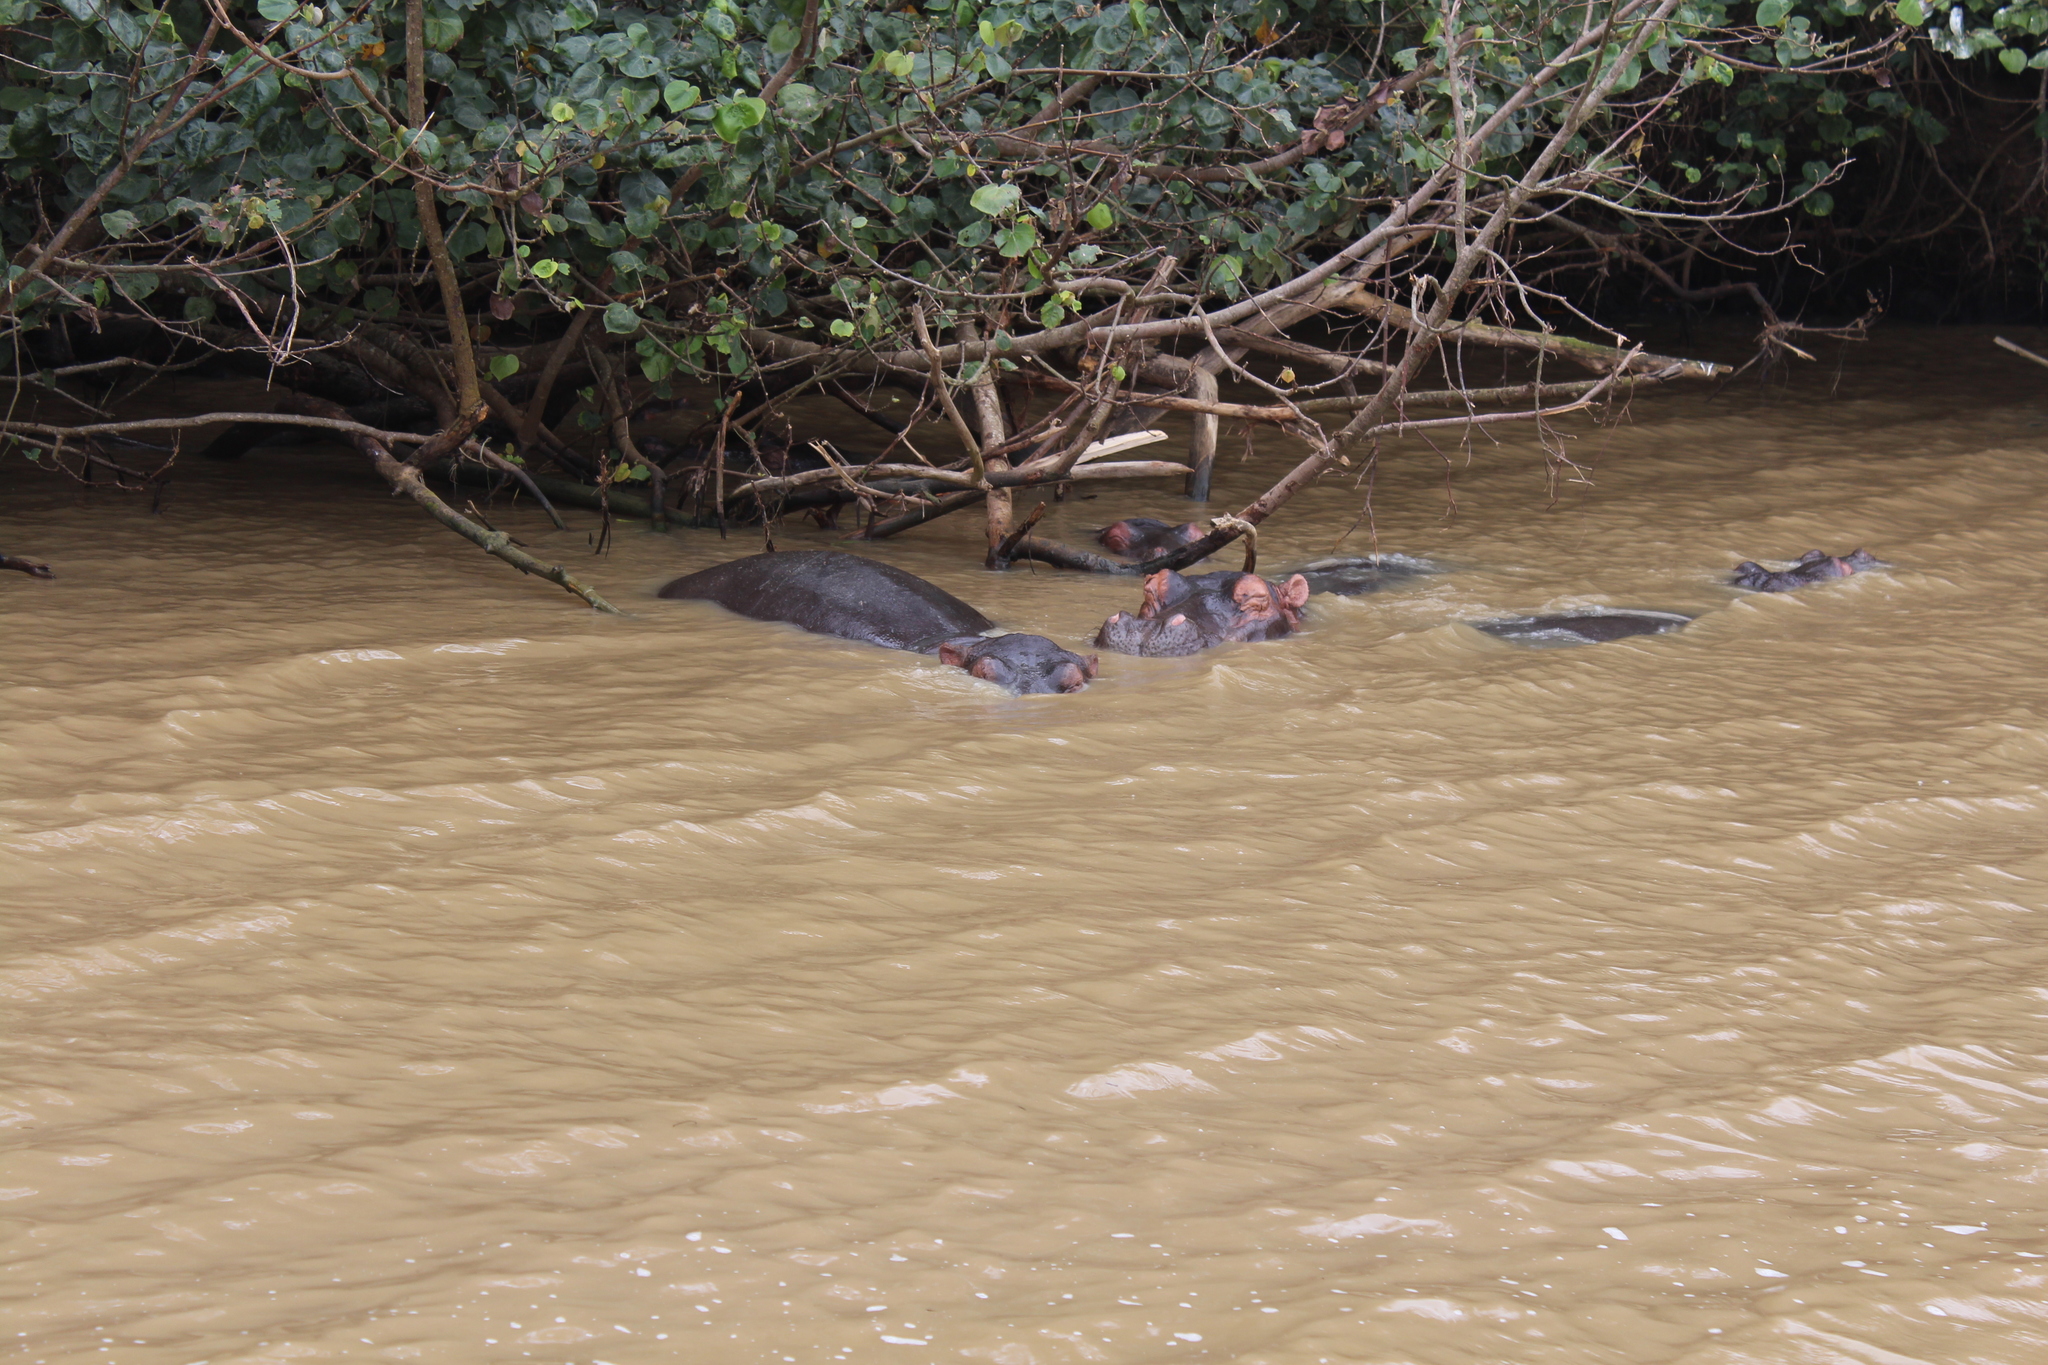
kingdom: Animalia
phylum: Chordata
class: Mammalia
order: Artiodactyla
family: Hippopotamidae
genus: Hippopotamus
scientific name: Hippopotamus amphibius
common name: Common hippopotamus
